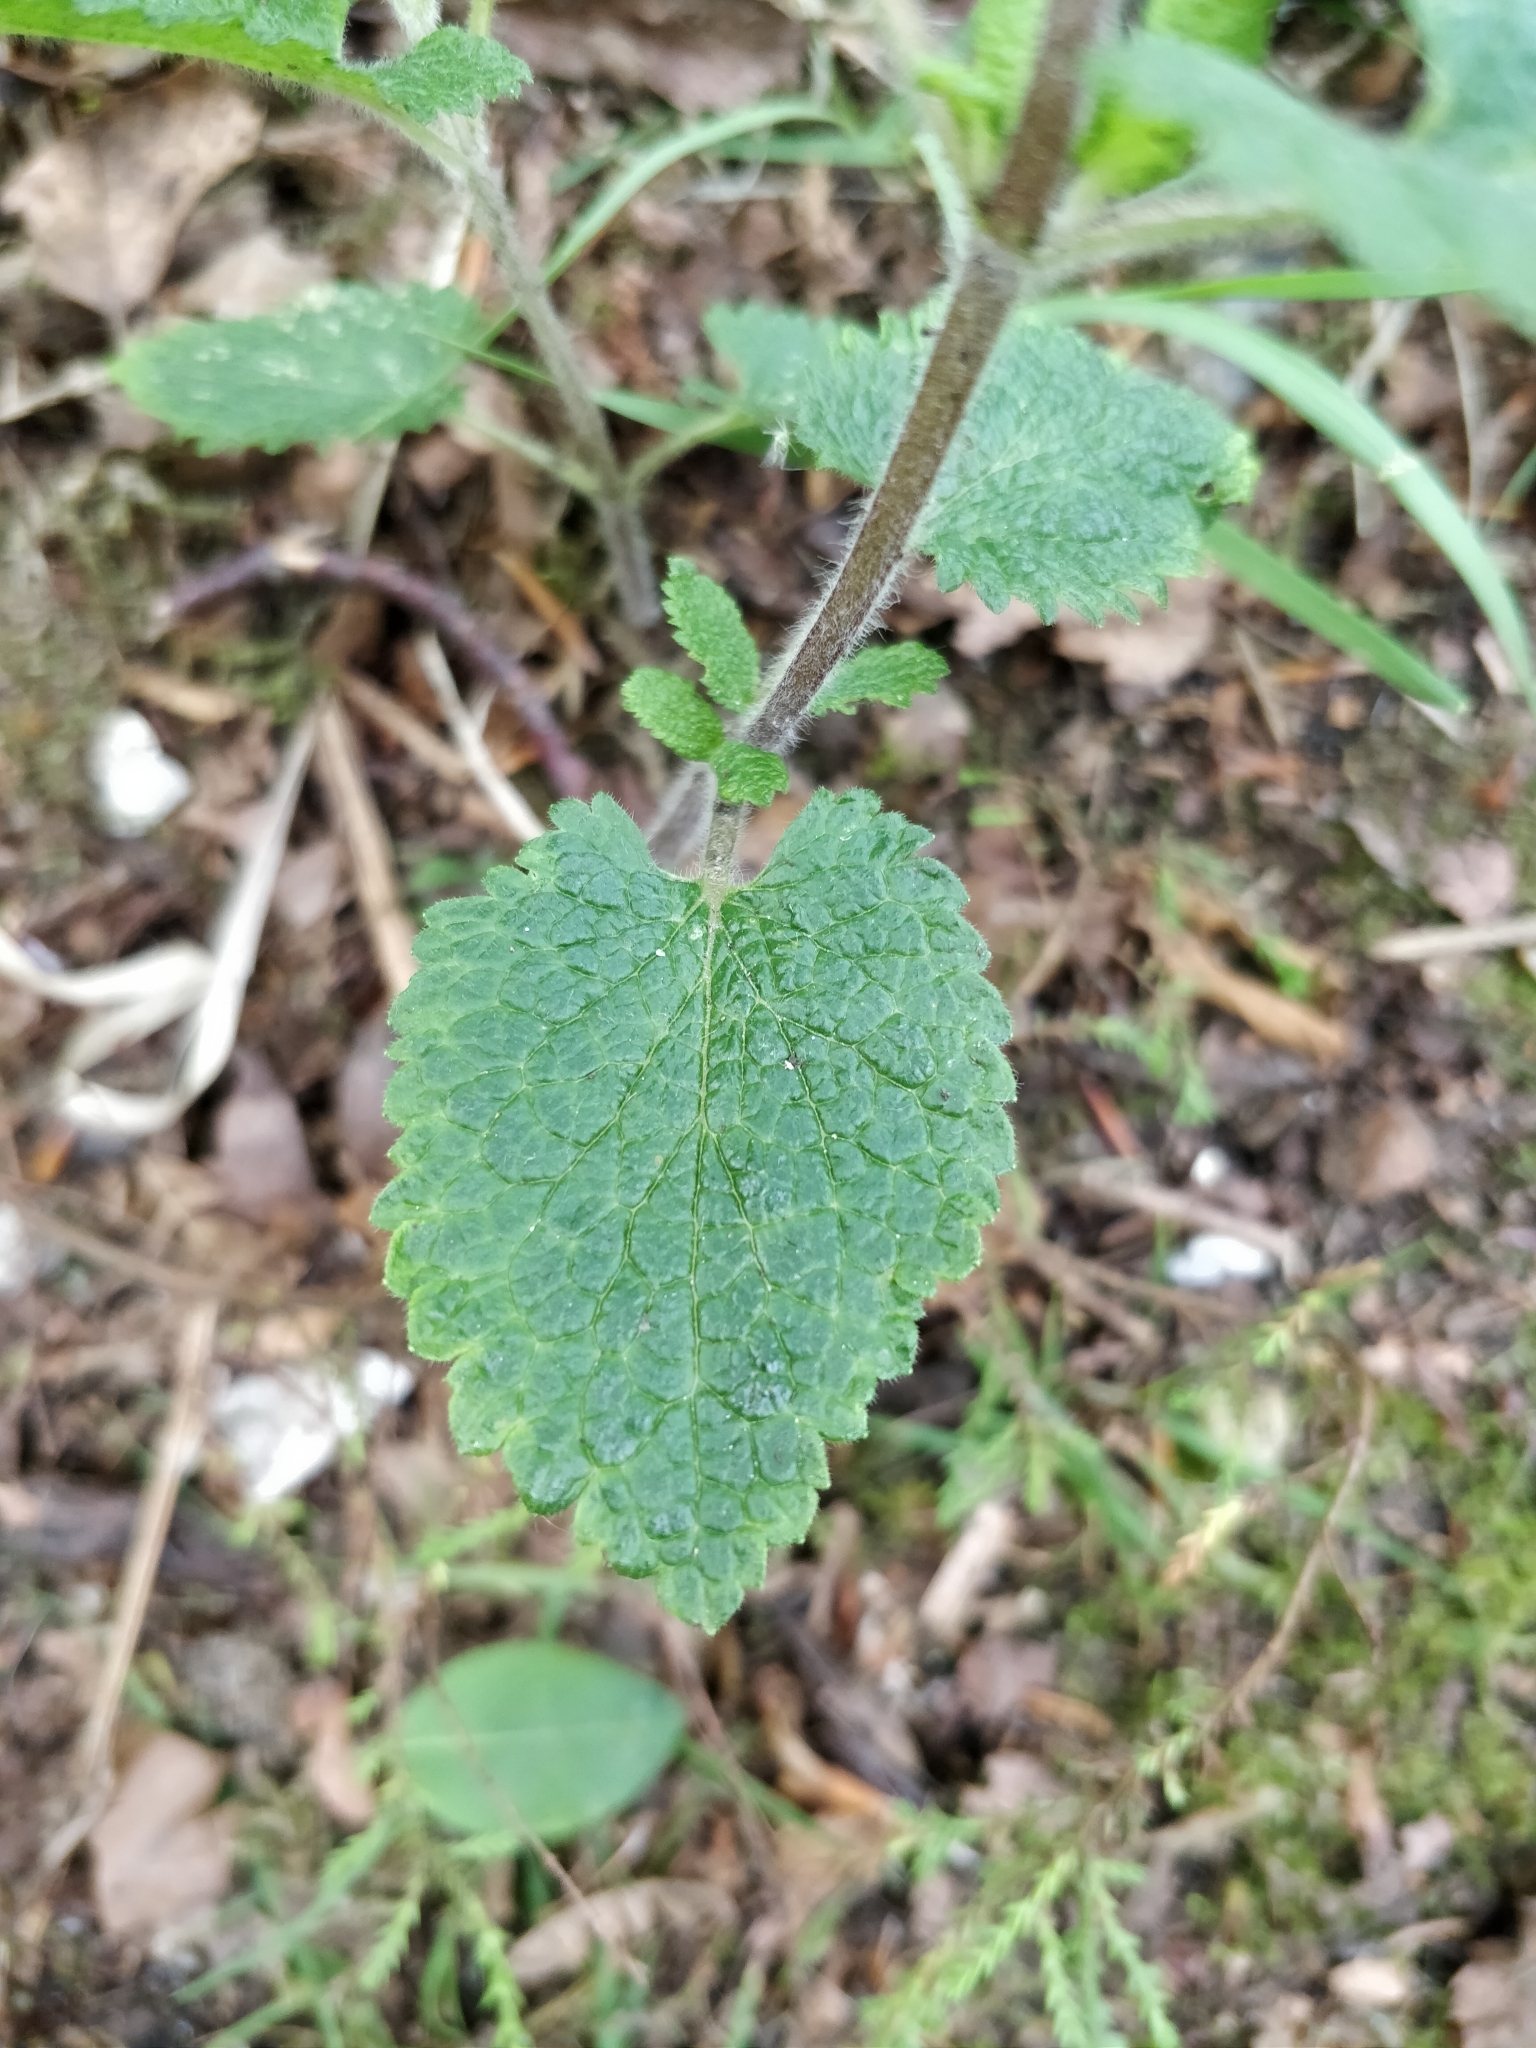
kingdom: Plantae
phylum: Tracheophyta
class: Magnoliopsida
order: Lamiales
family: Lamiaceae
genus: Teucrium
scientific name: Teucrium scorodonia
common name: Woodland germander
